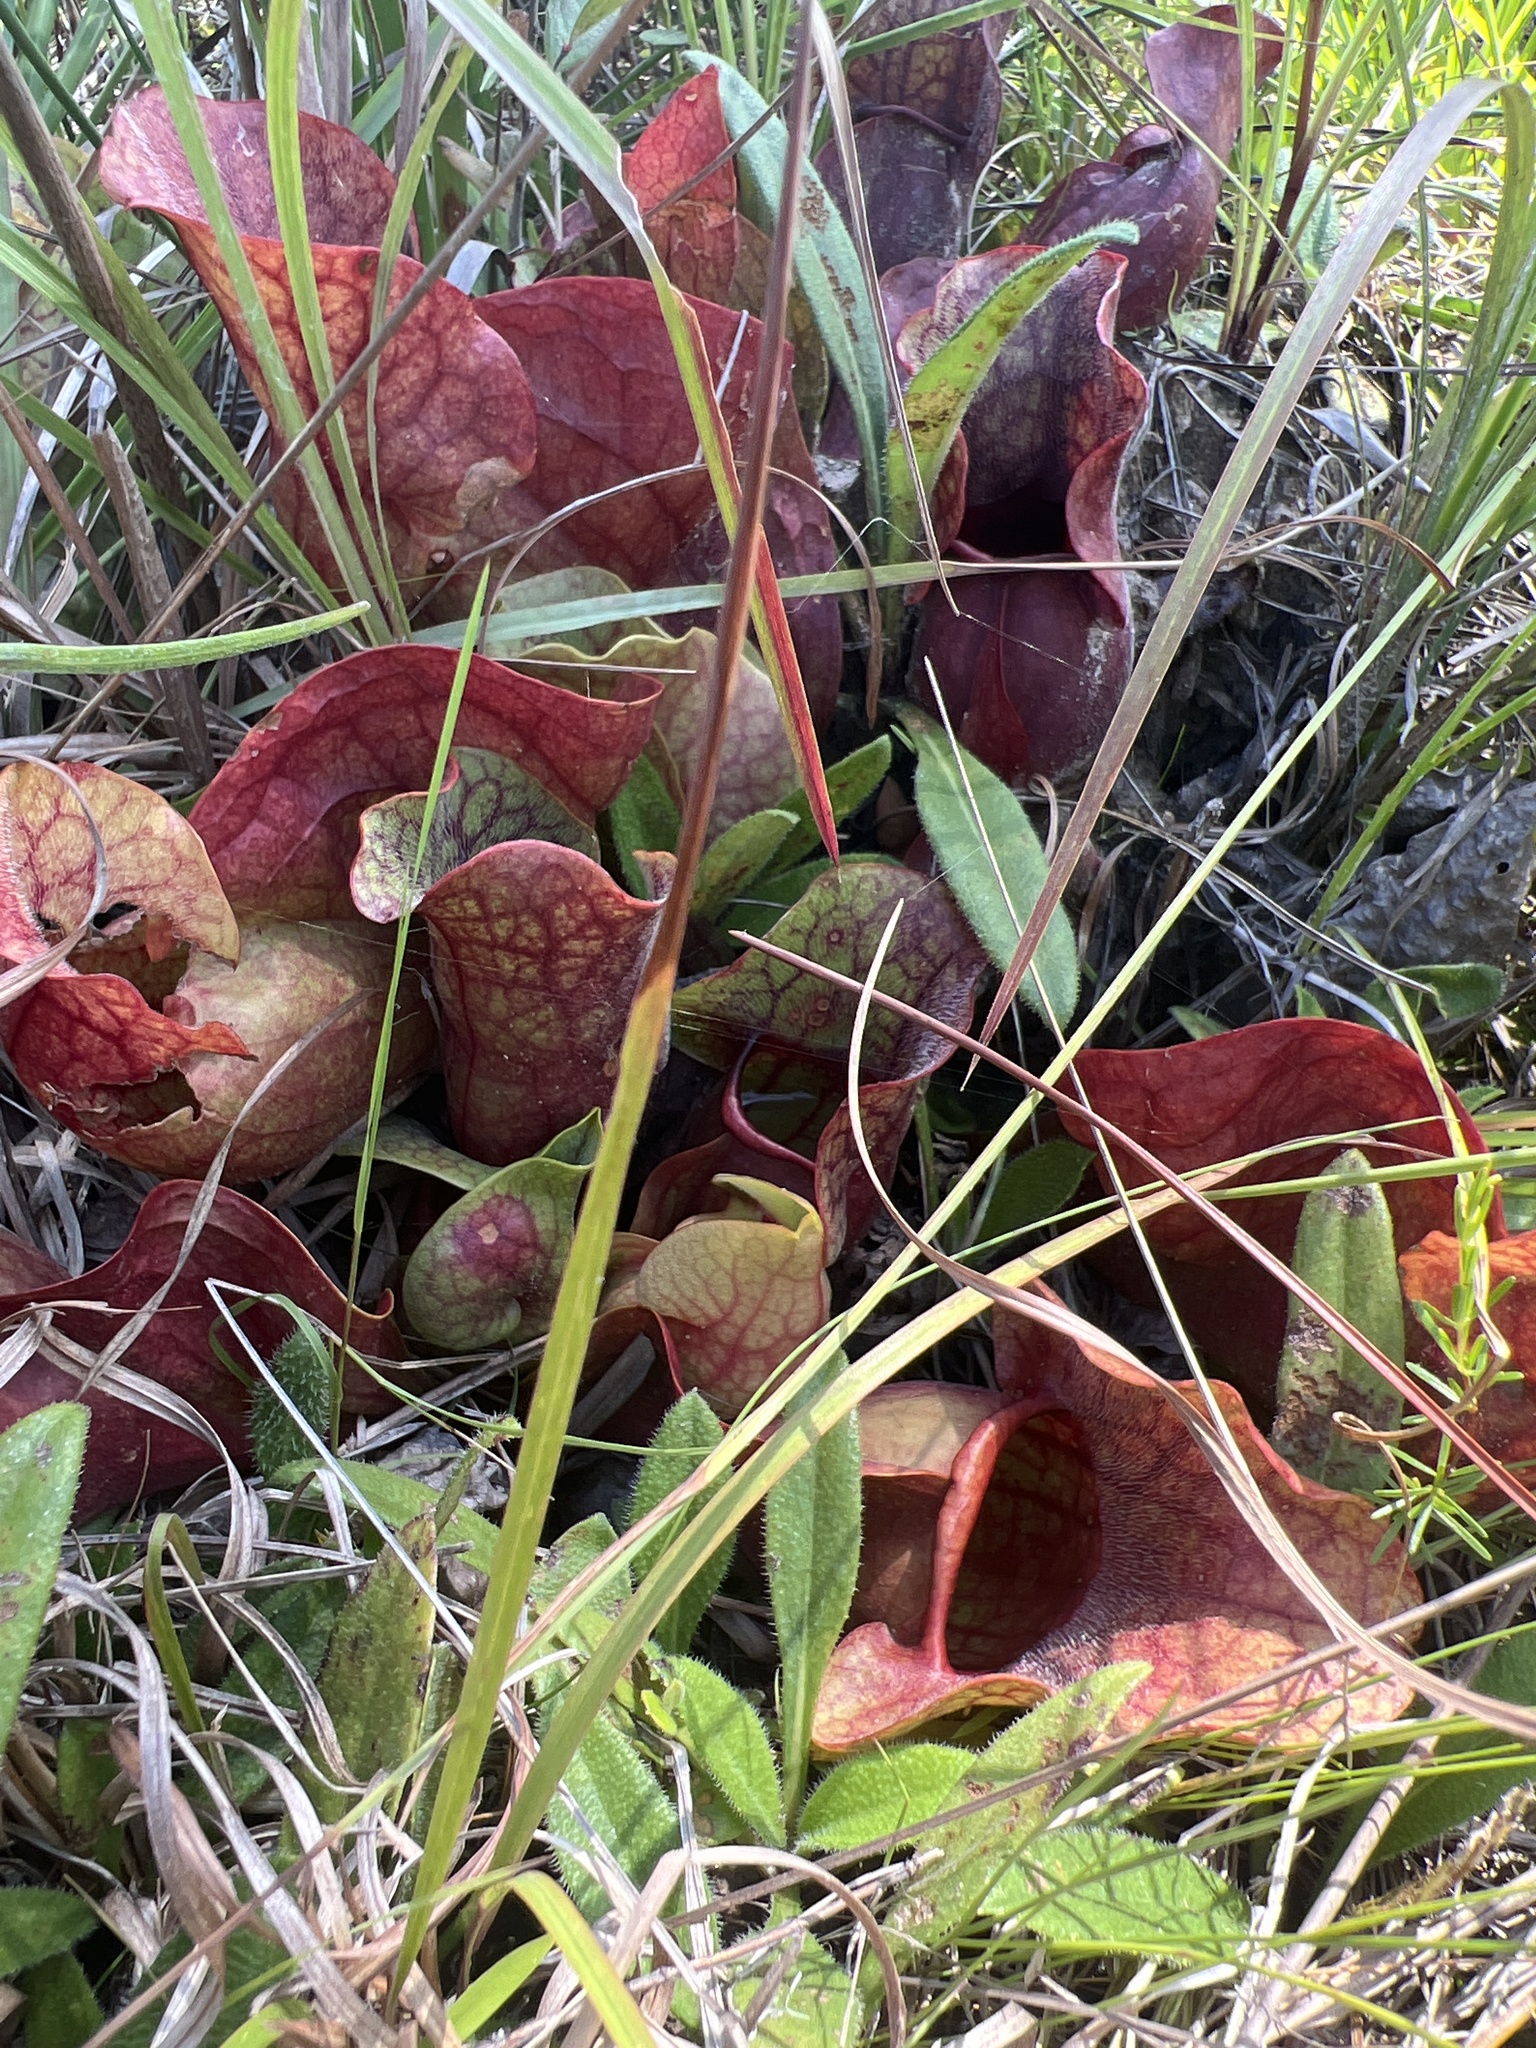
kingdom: Plantae
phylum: Tracheophyta
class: Magnoliopsida
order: Ericales
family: Sarraceniaceae
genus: Sarracenia
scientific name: Sarracenia rosea
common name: Pink pitcherplant
